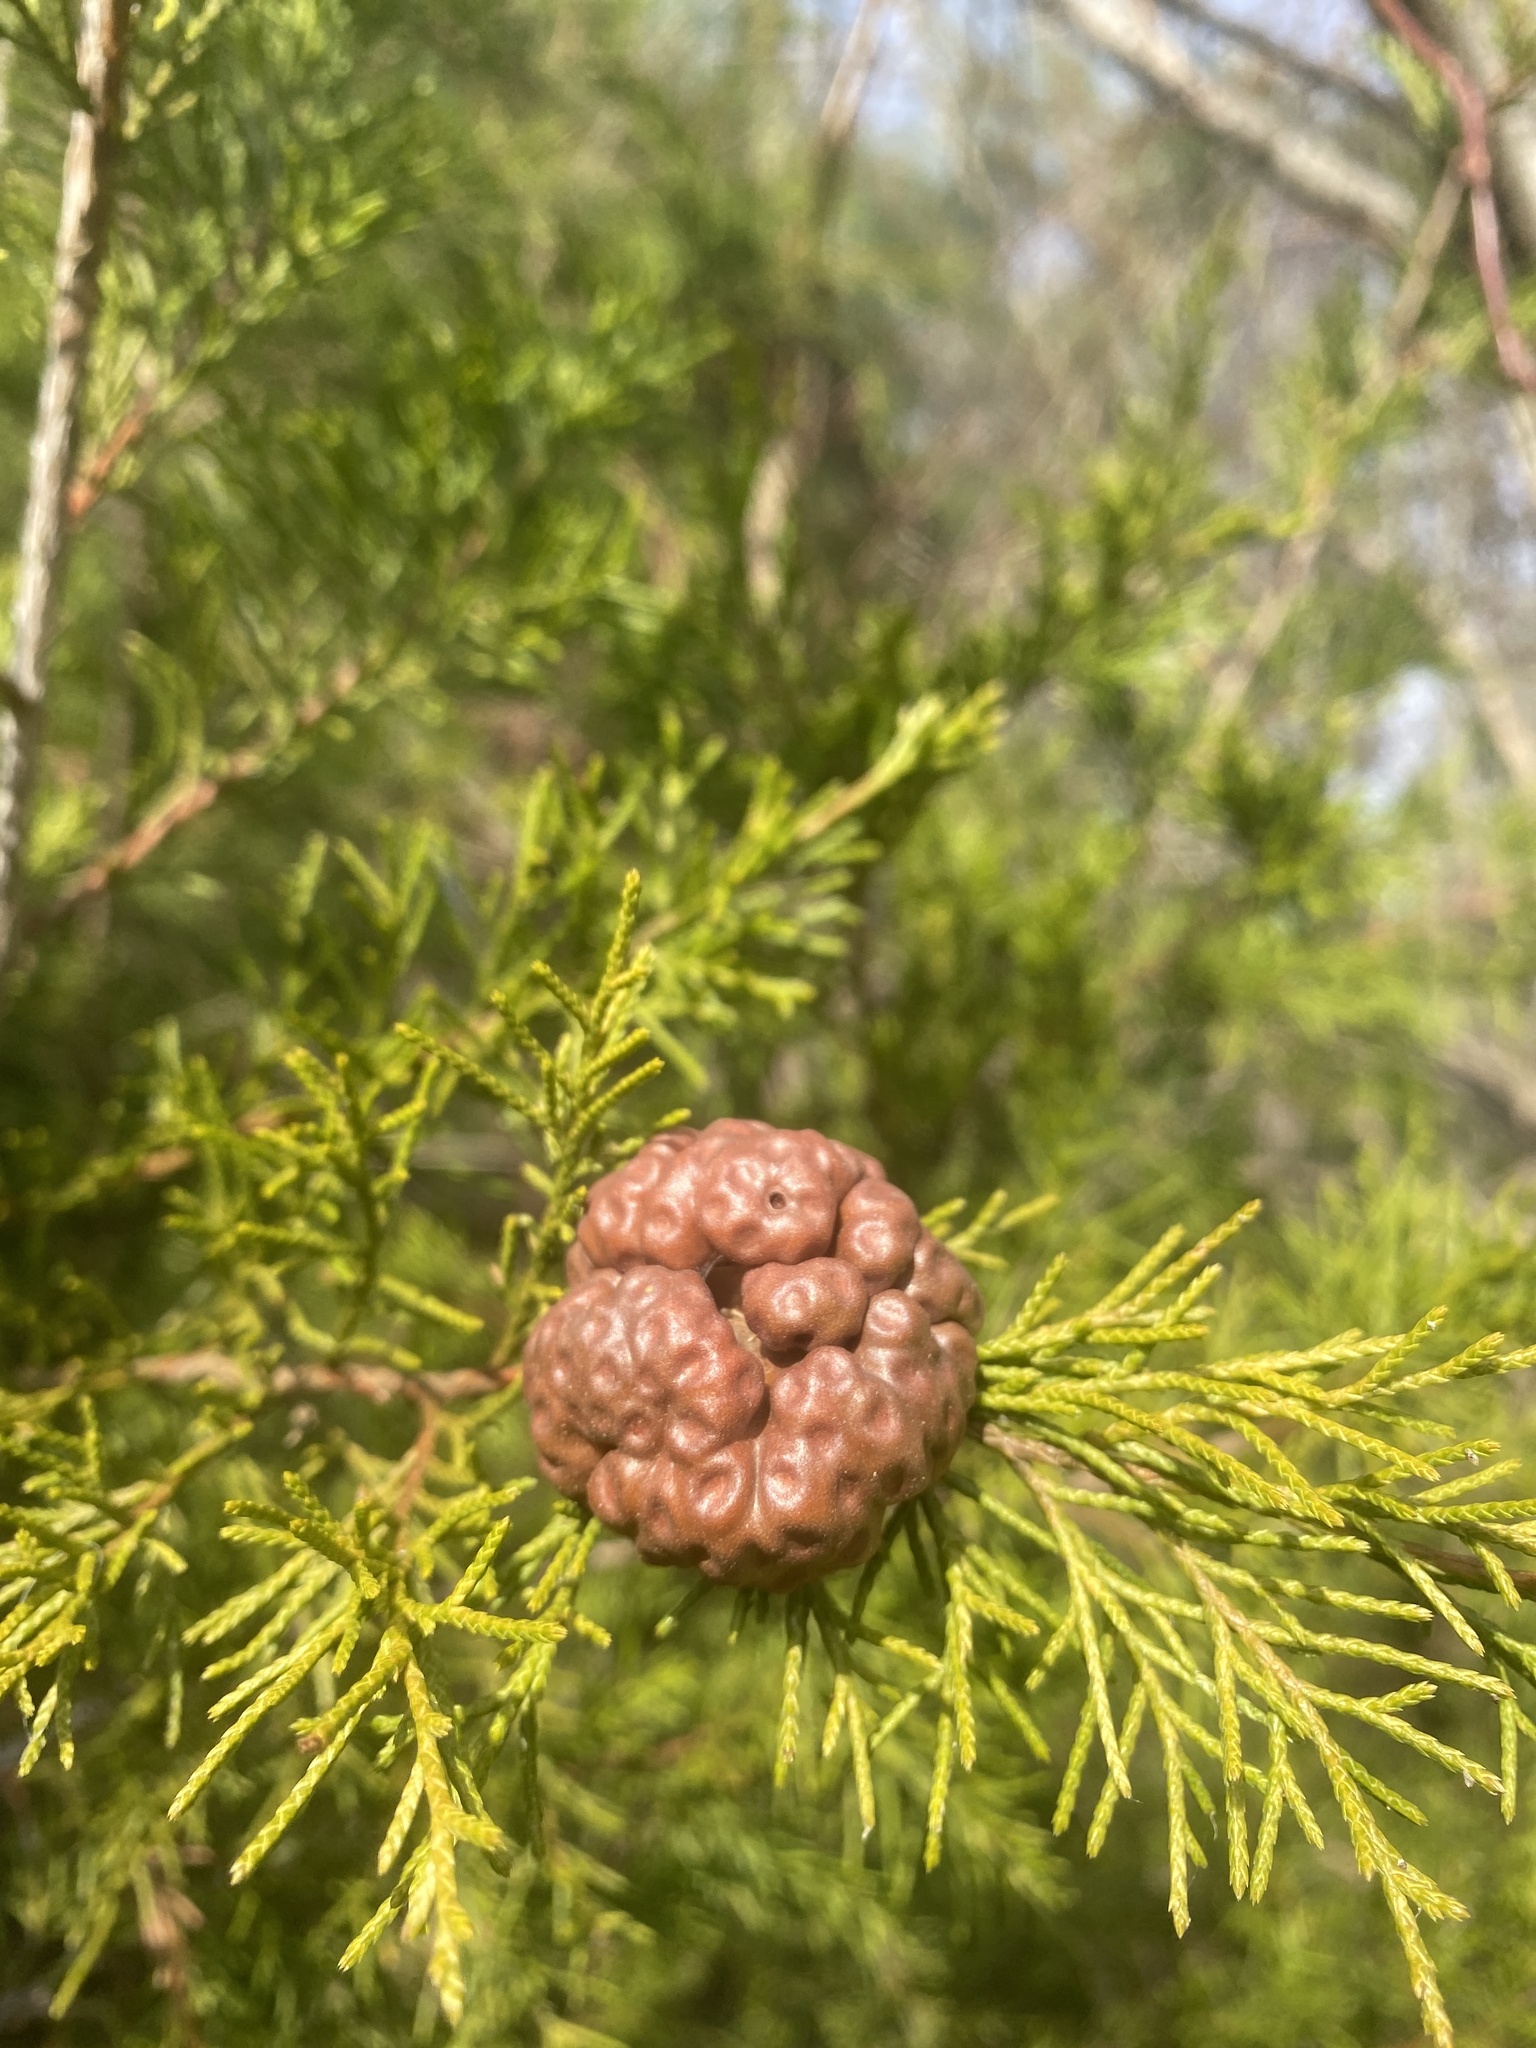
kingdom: Fungi
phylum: Basidiomycota
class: Pucciniomycetes
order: Pucciniales
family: Gymnosporangiaceae
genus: Gymnosporangium
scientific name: Gymnosporangium juniperi-virginianae
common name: Juniper-apple rust
